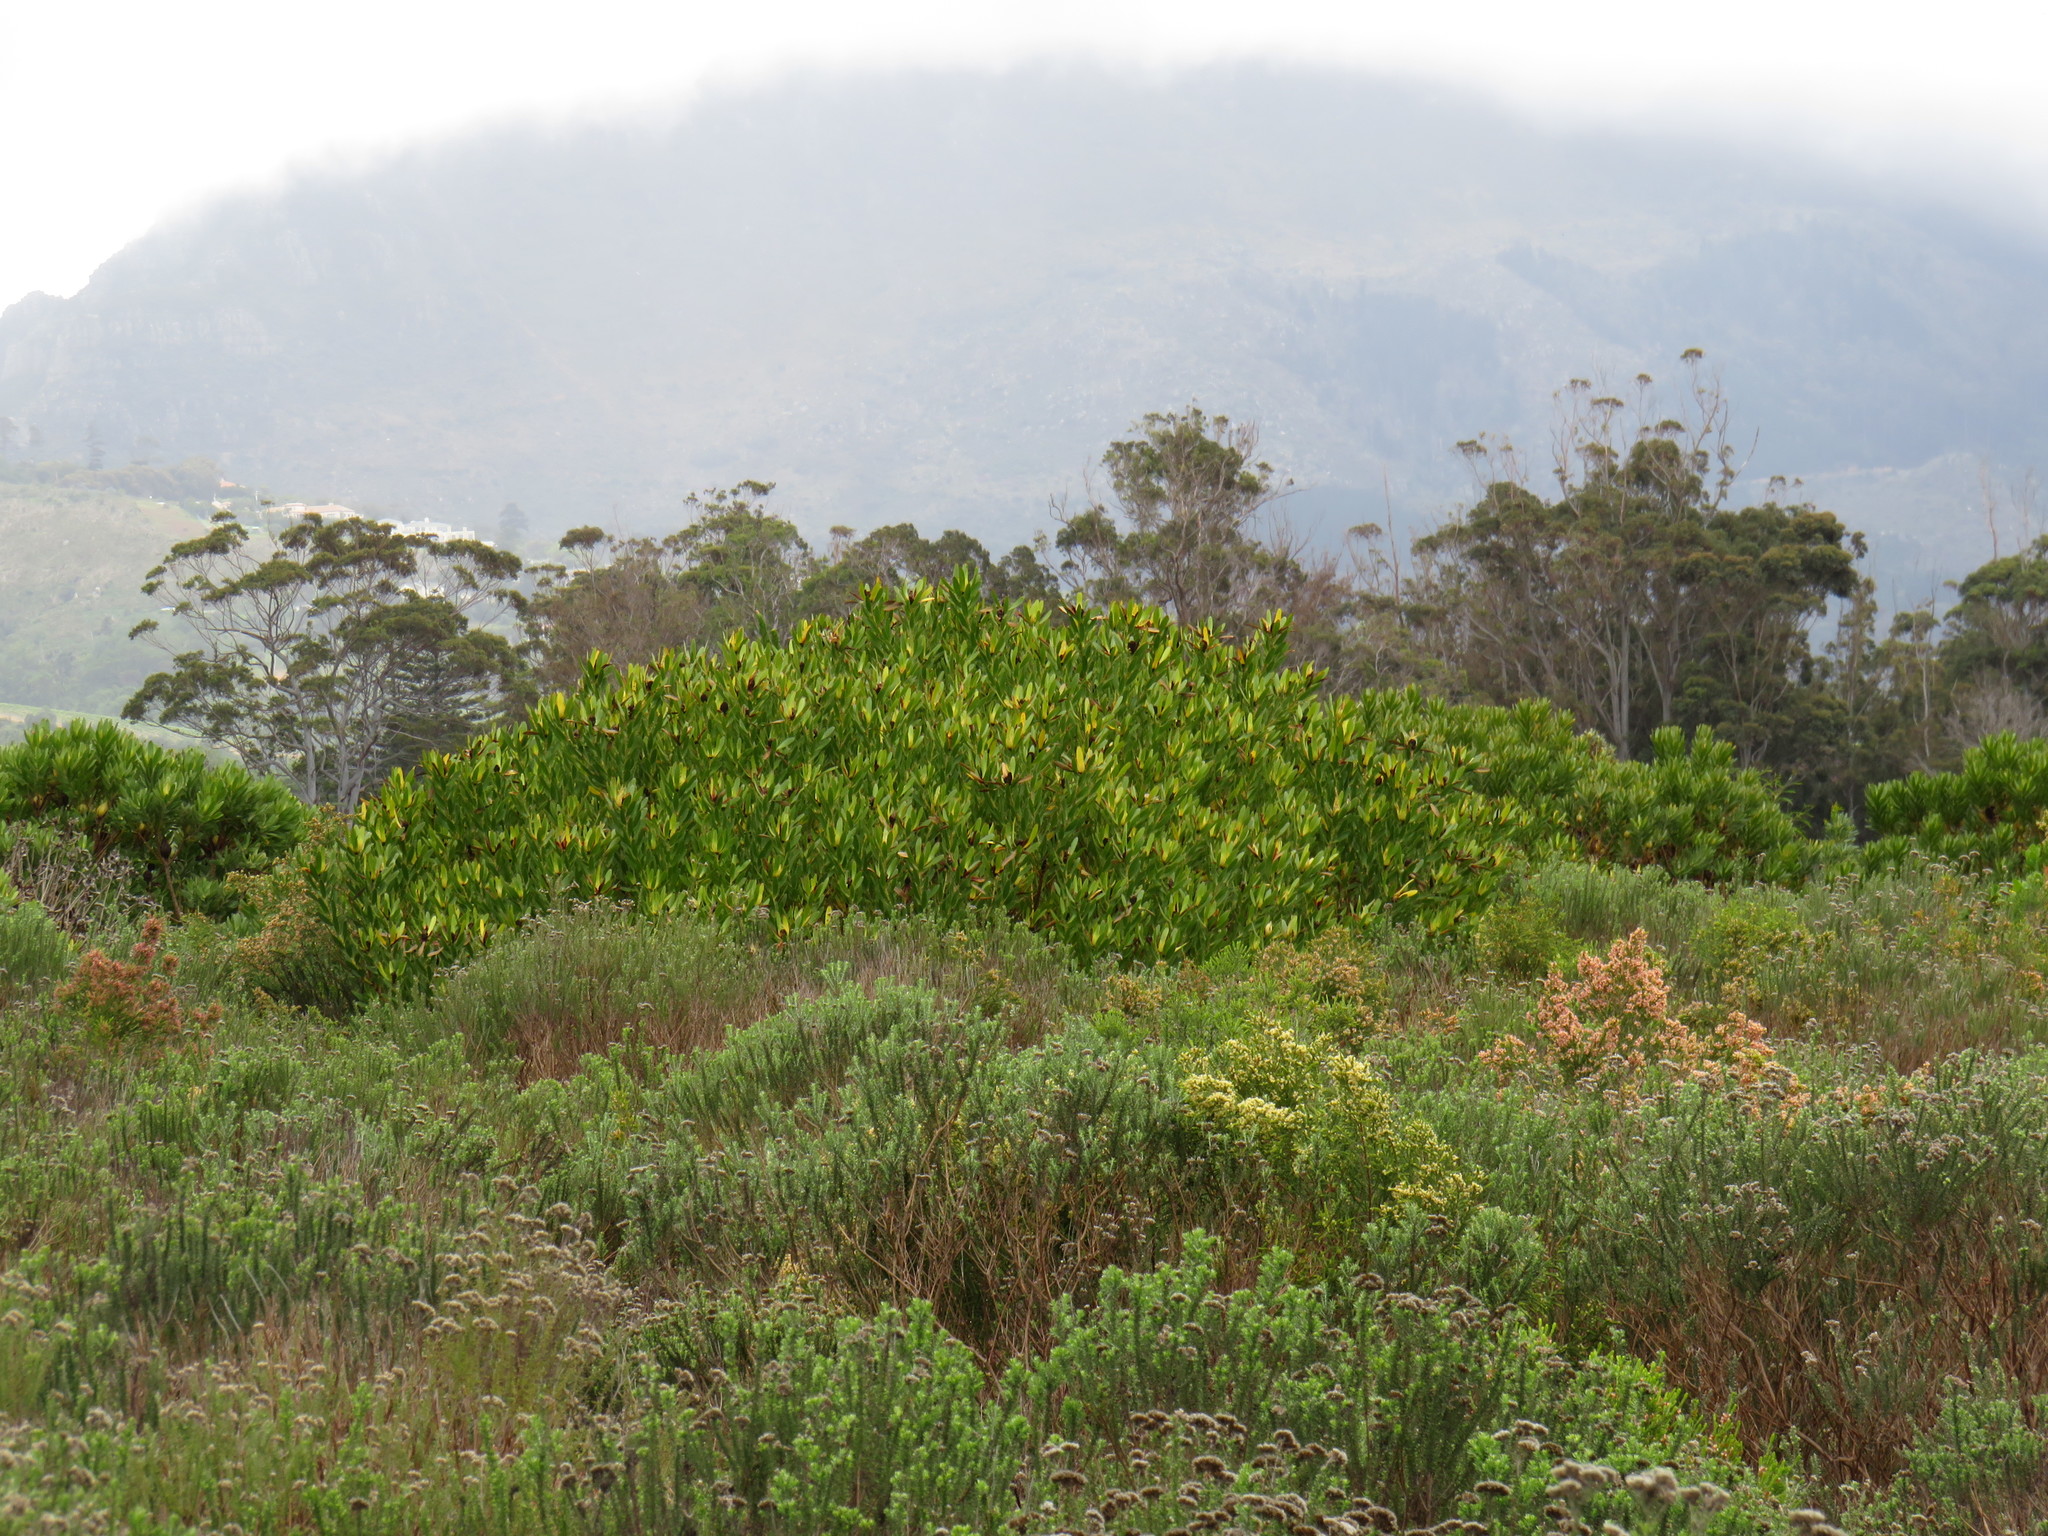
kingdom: Plantae
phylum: Tracheophyta
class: Magnoliopsida
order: Proteales
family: Proteaceae
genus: Leucadendron
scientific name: Leucadendron laureolum
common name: Golden sunshinebush
